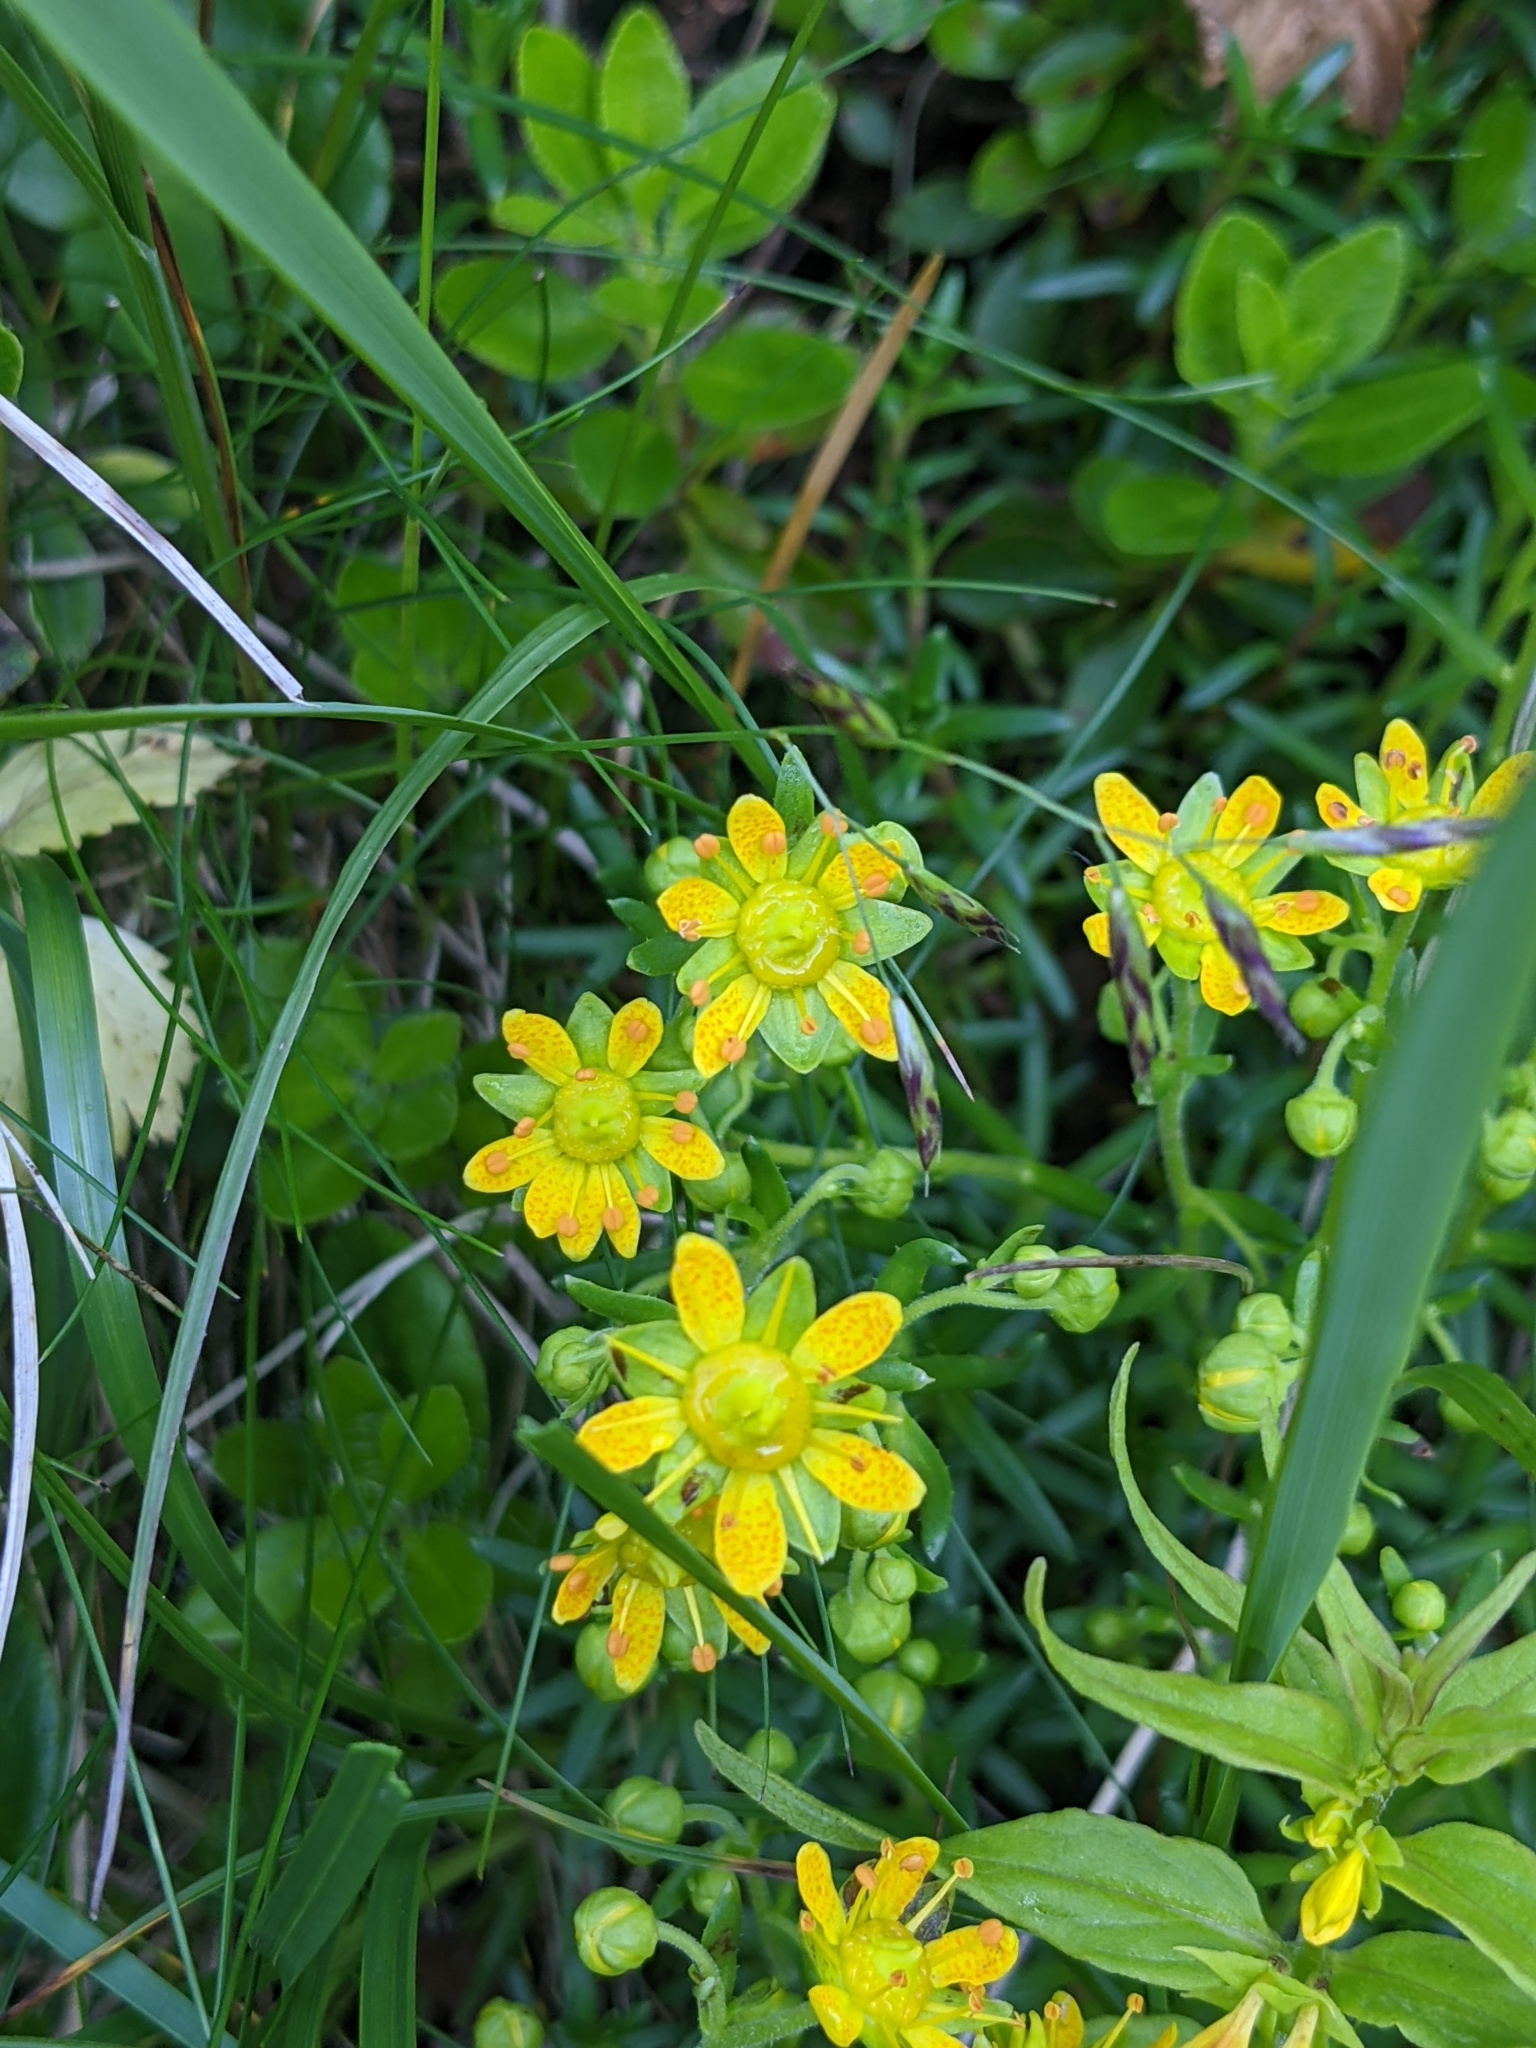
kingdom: Plantae
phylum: Tracheophyta
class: Magnoliopsida
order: Saxifragales
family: Saxifragaceae
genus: Saxifraga
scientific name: Saxifraga aizoides
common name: Yellow mountain saxifrage
